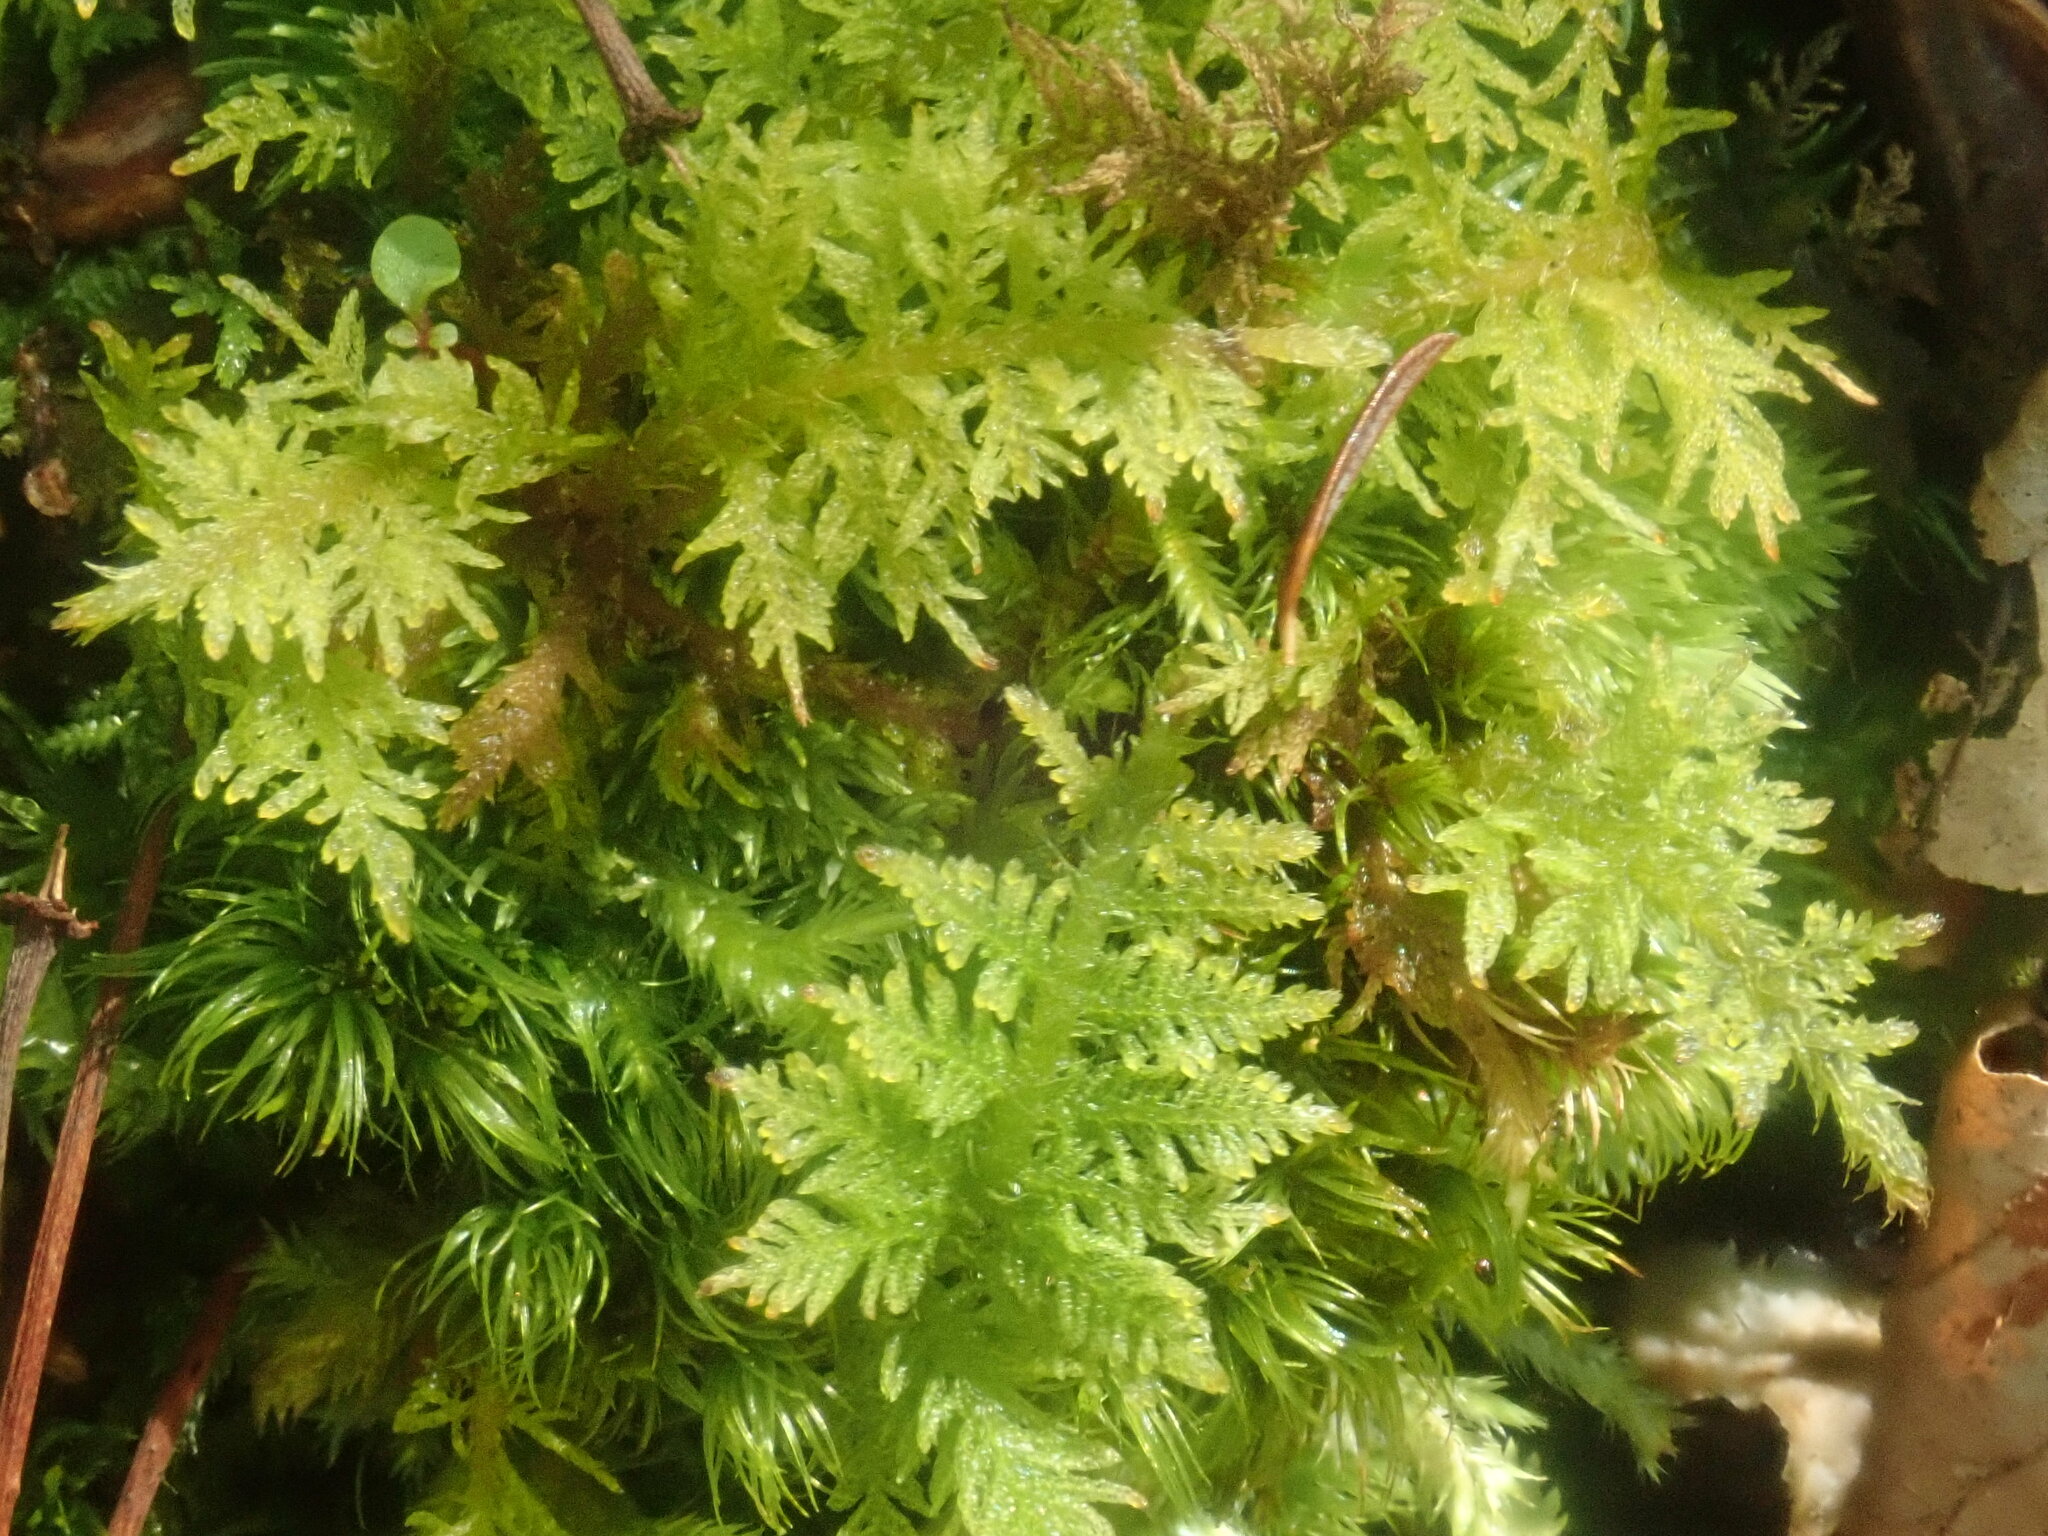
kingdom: Plantae
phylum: Bryophyta
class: Bryopsida
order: Hypnales
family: Thuidiaceae
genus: Thuidium
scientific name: Thuidium delicatulum
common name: Delicate fern moss
